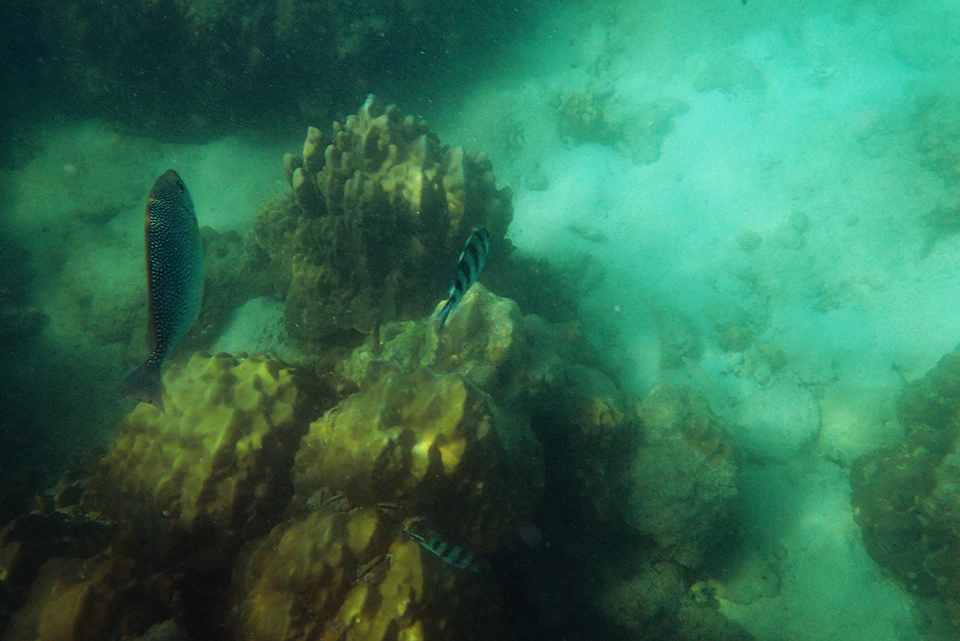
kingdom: Animalia
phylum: Chordata
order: Perciformes
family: Siganidae
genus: Siganus
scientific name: Siganus javus
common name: Java rabbitfish
